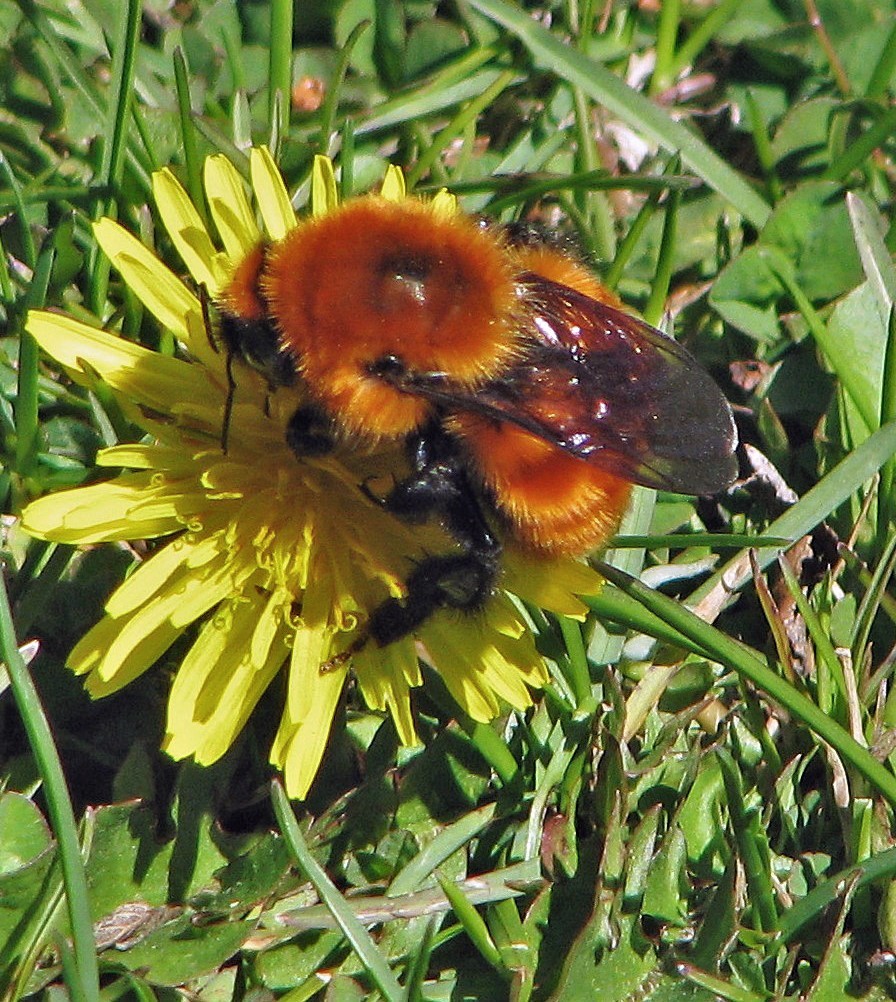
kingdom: Animalia
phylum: Arthropoda
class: Insecta
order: Hymenoptera
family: Apidae
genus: Bombus
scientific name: Bombus dahlbomii
